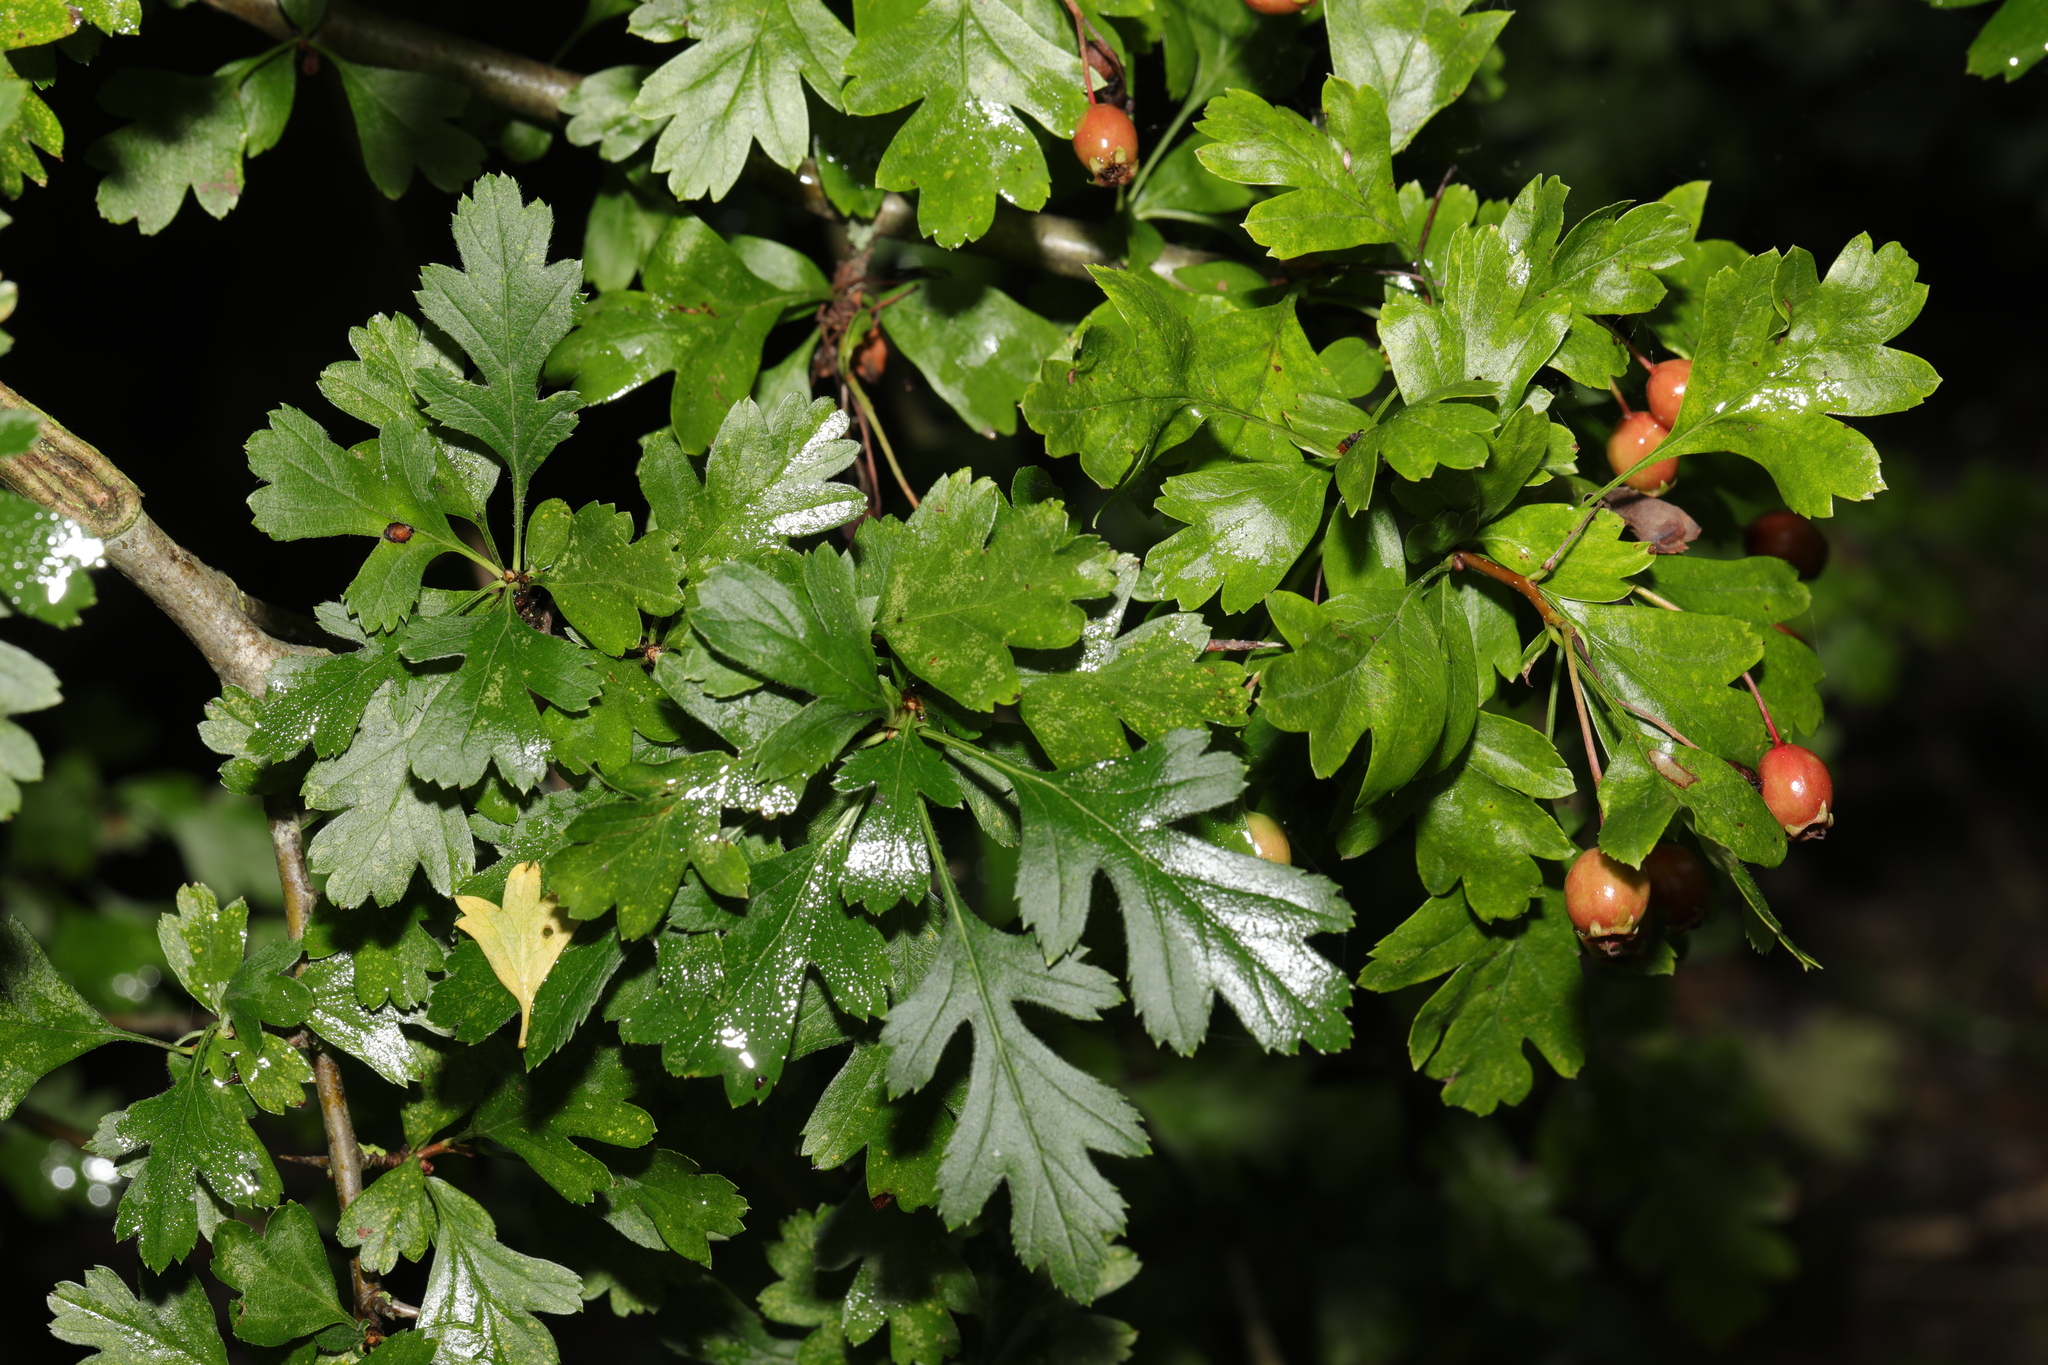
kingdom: Plantae
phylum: Tracheophyta
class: Magnoliopsida
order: Rosales
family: Rosaceae
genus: Crataegus
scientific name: Crataegus monogyna
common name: Hawthorn
